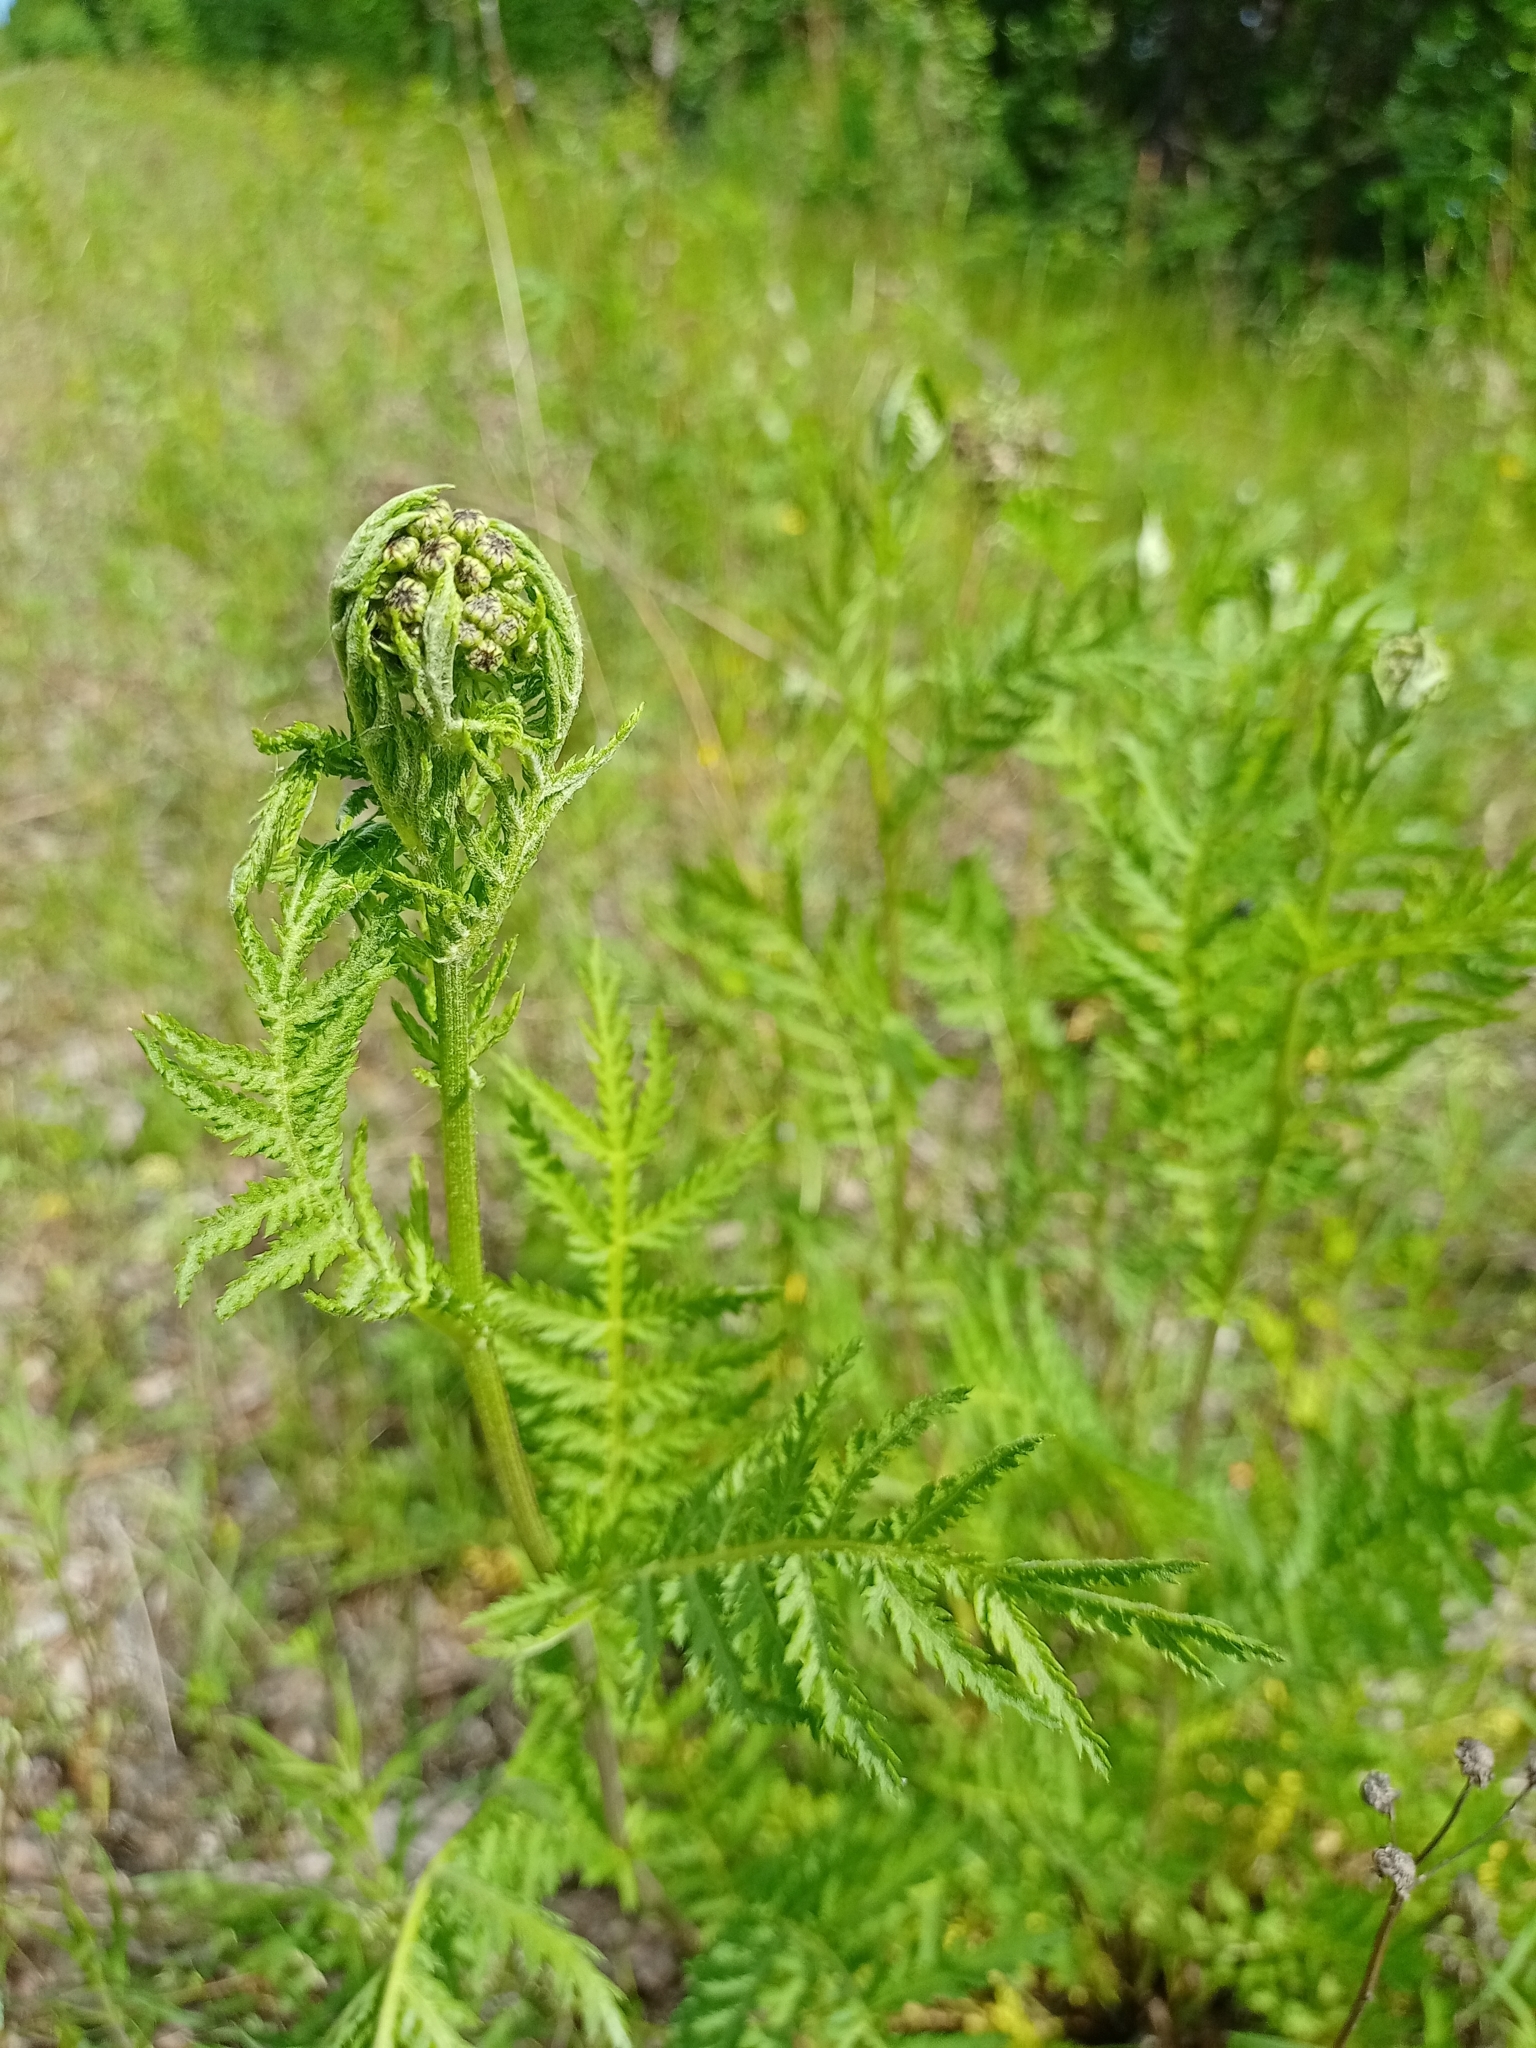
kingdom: Plantae
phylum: Tracheophyta
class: Magnoliopsida
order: Asterales
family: Asteraceae
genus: Tanacetum
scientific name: Tanacetum vulgare
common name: Common tansy
